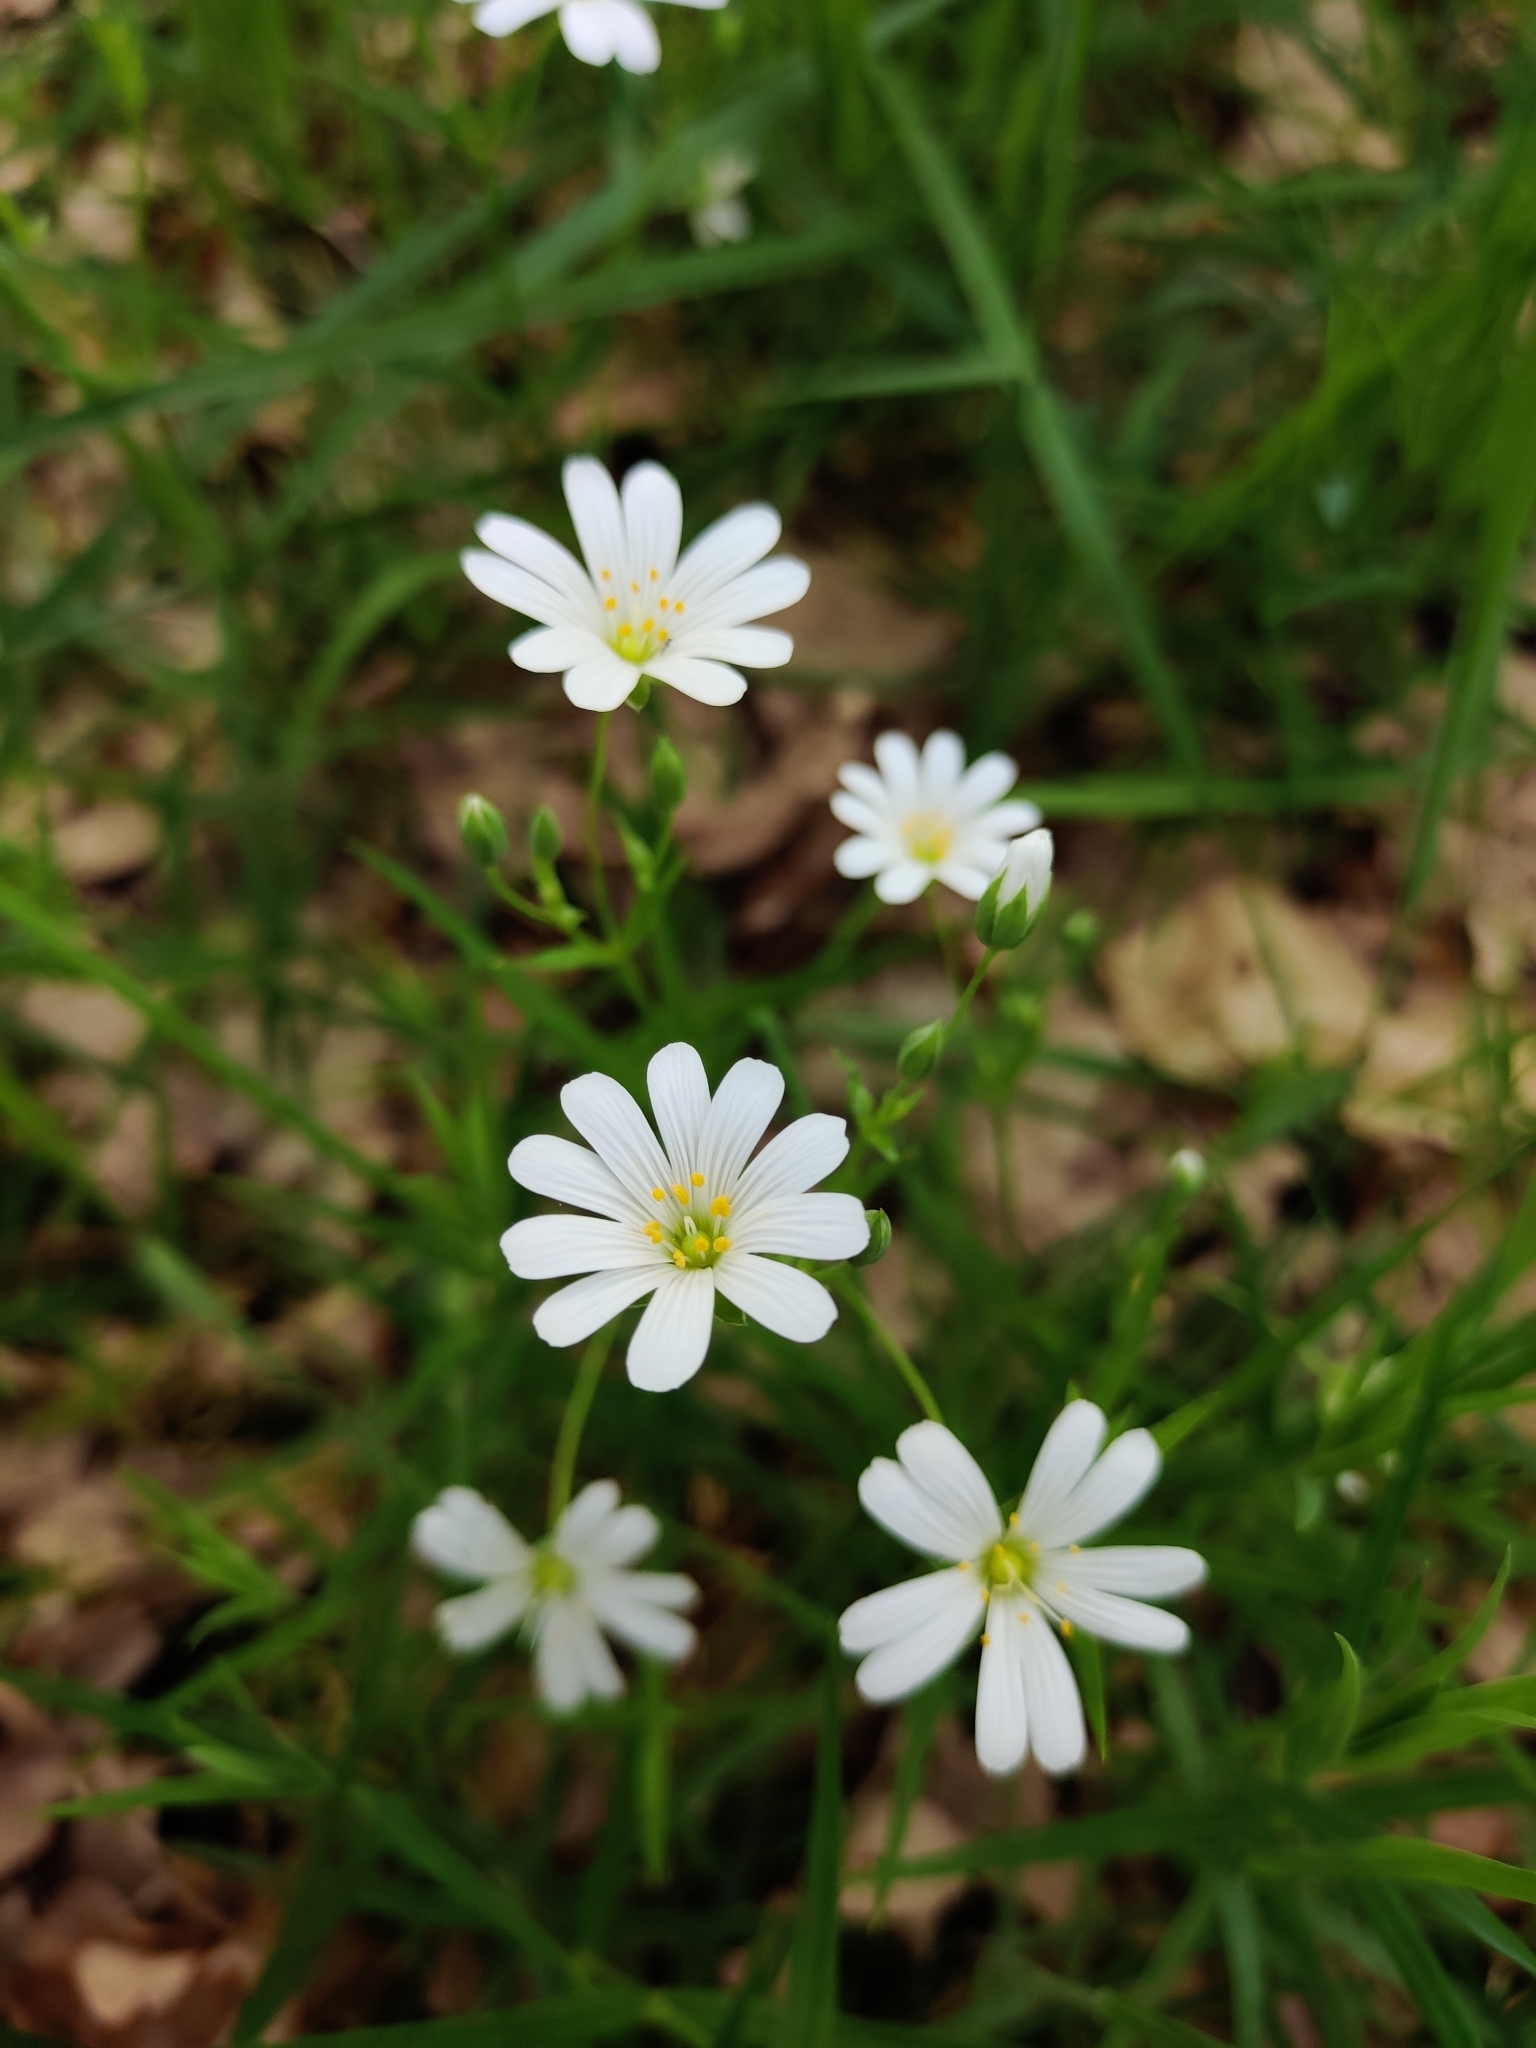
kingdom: Plantae
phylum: Tracheophyta
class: Magnoliopsida
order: Caryophyllales
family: Caryophyllaceae
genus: Rabelera
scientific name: Rabelera holostea
